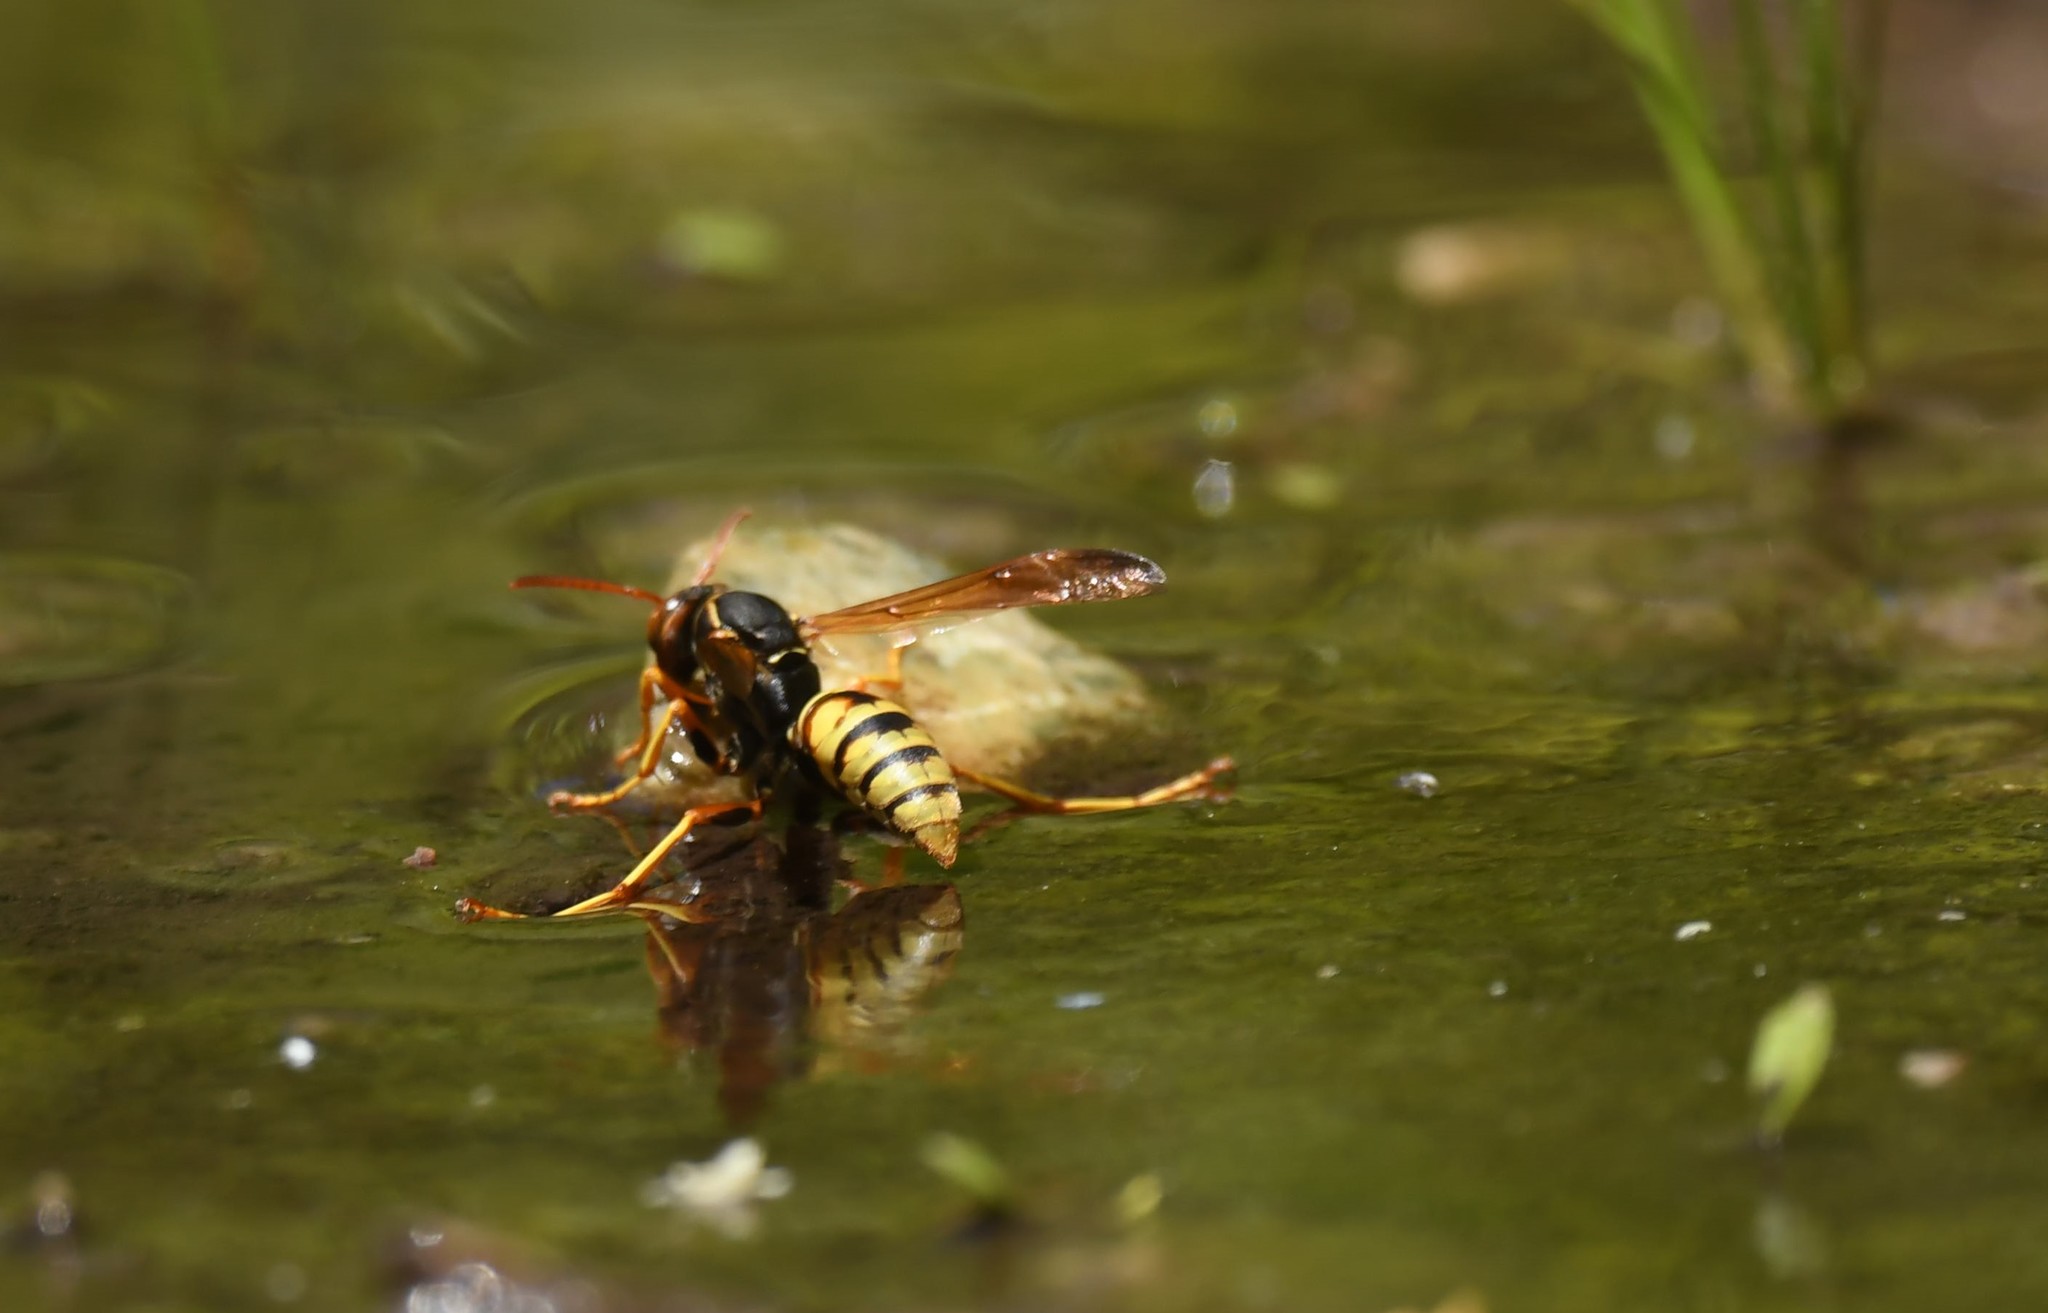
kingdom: Animalia
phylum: Arthropoda
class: Insecta
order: Hymenoptera
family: Eumenidae
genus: Polistes
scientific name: Polistes aurifer
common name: Paper wasp
